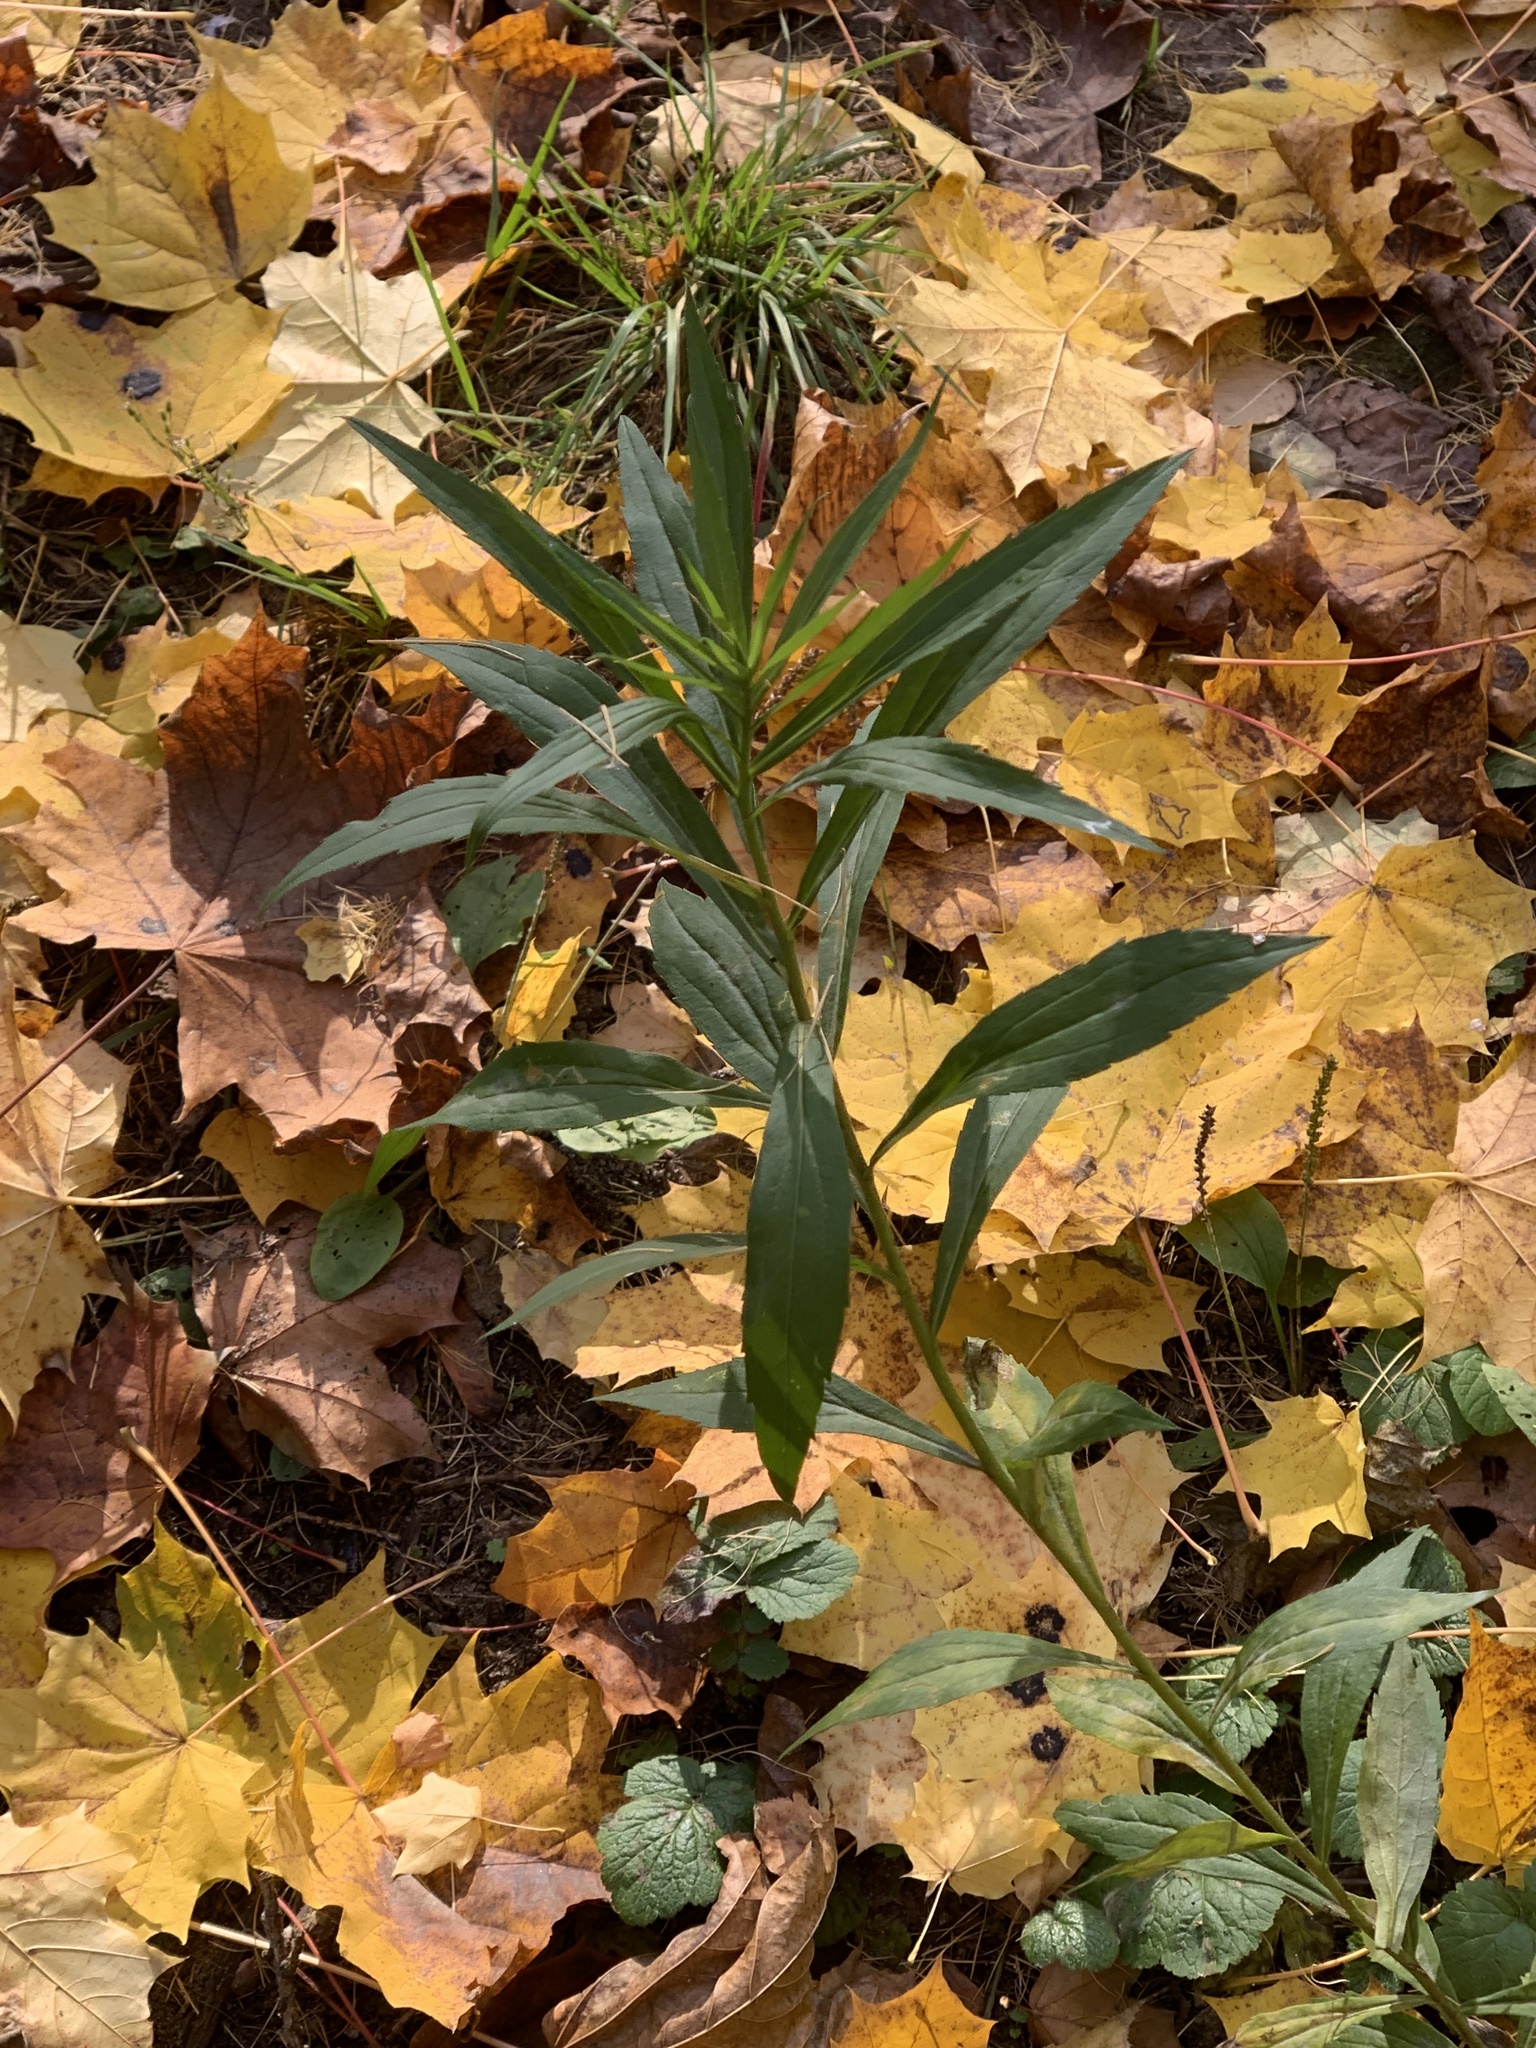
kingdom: Plantae
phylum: Tracheophyta
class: Magnoliopsida
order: Asterales
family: Asteraceae
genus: Solidago
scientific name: Solidago canadensis
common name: Canada goldenrod
